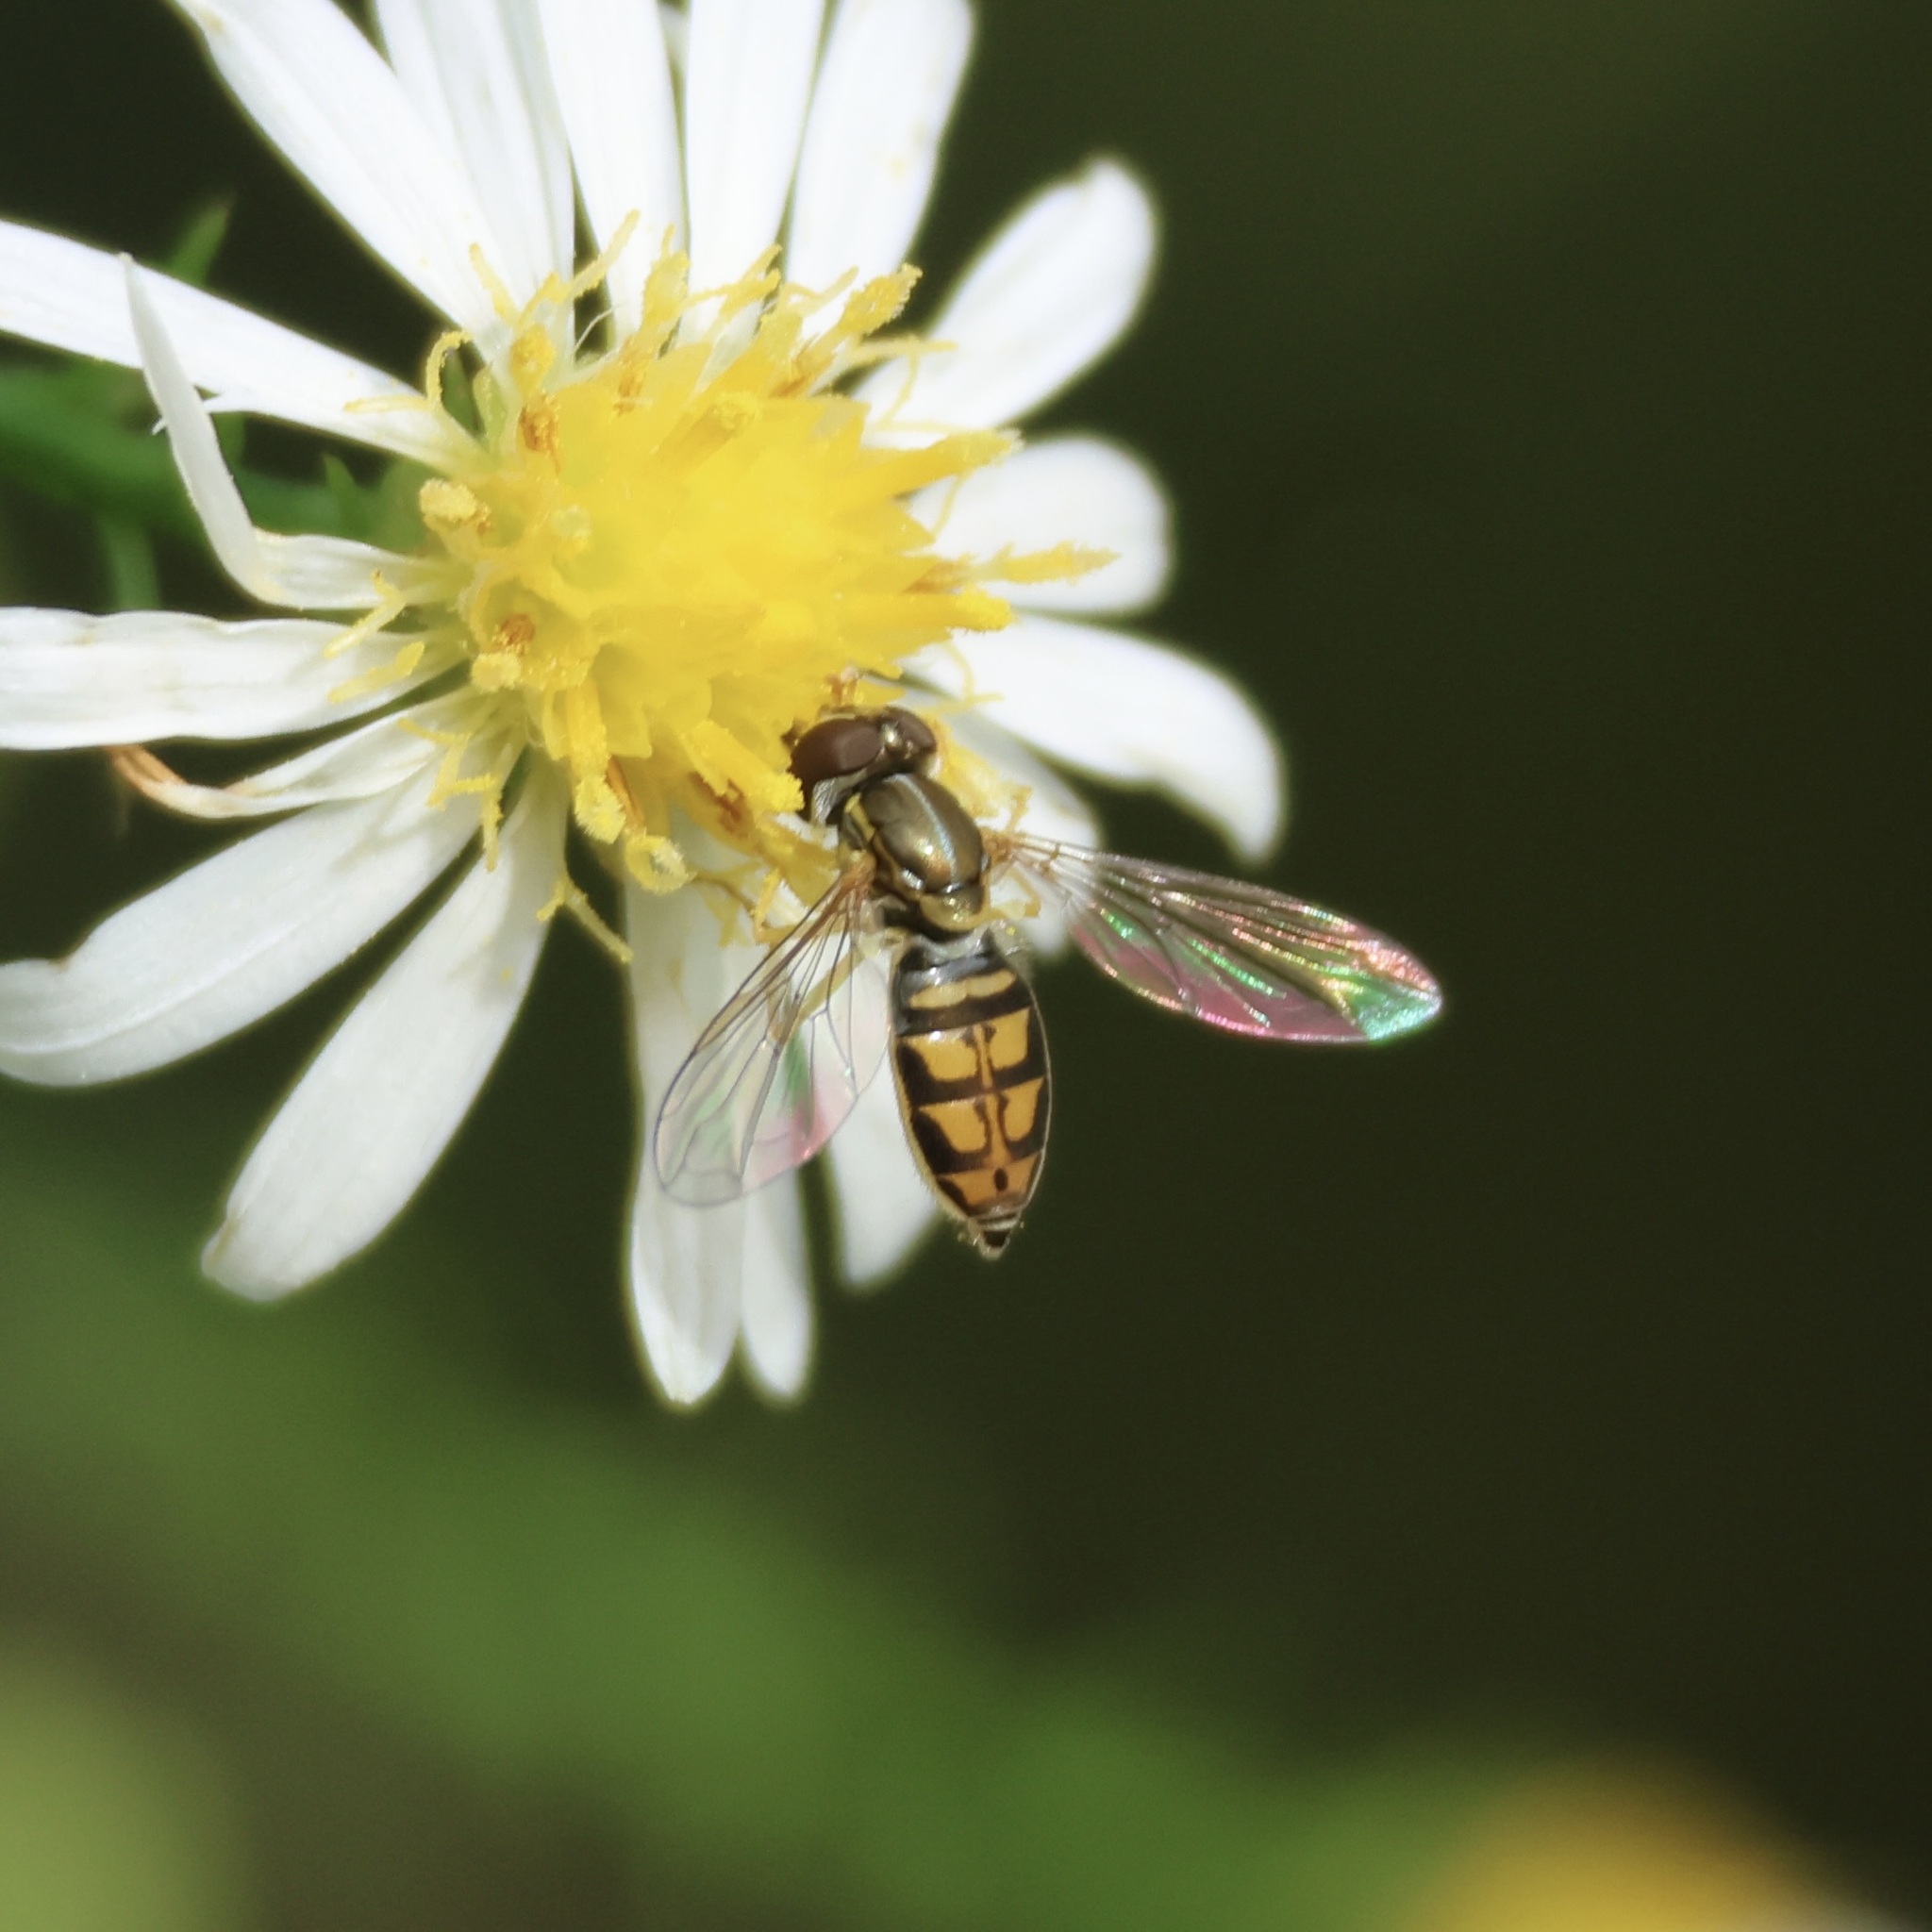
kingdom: Animalia
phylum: Arthropoda
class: Insecta
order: Diptera
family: Syrphidae
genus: Toxomerus
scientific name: Toxomerus marginatus
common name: Syrphid fly
